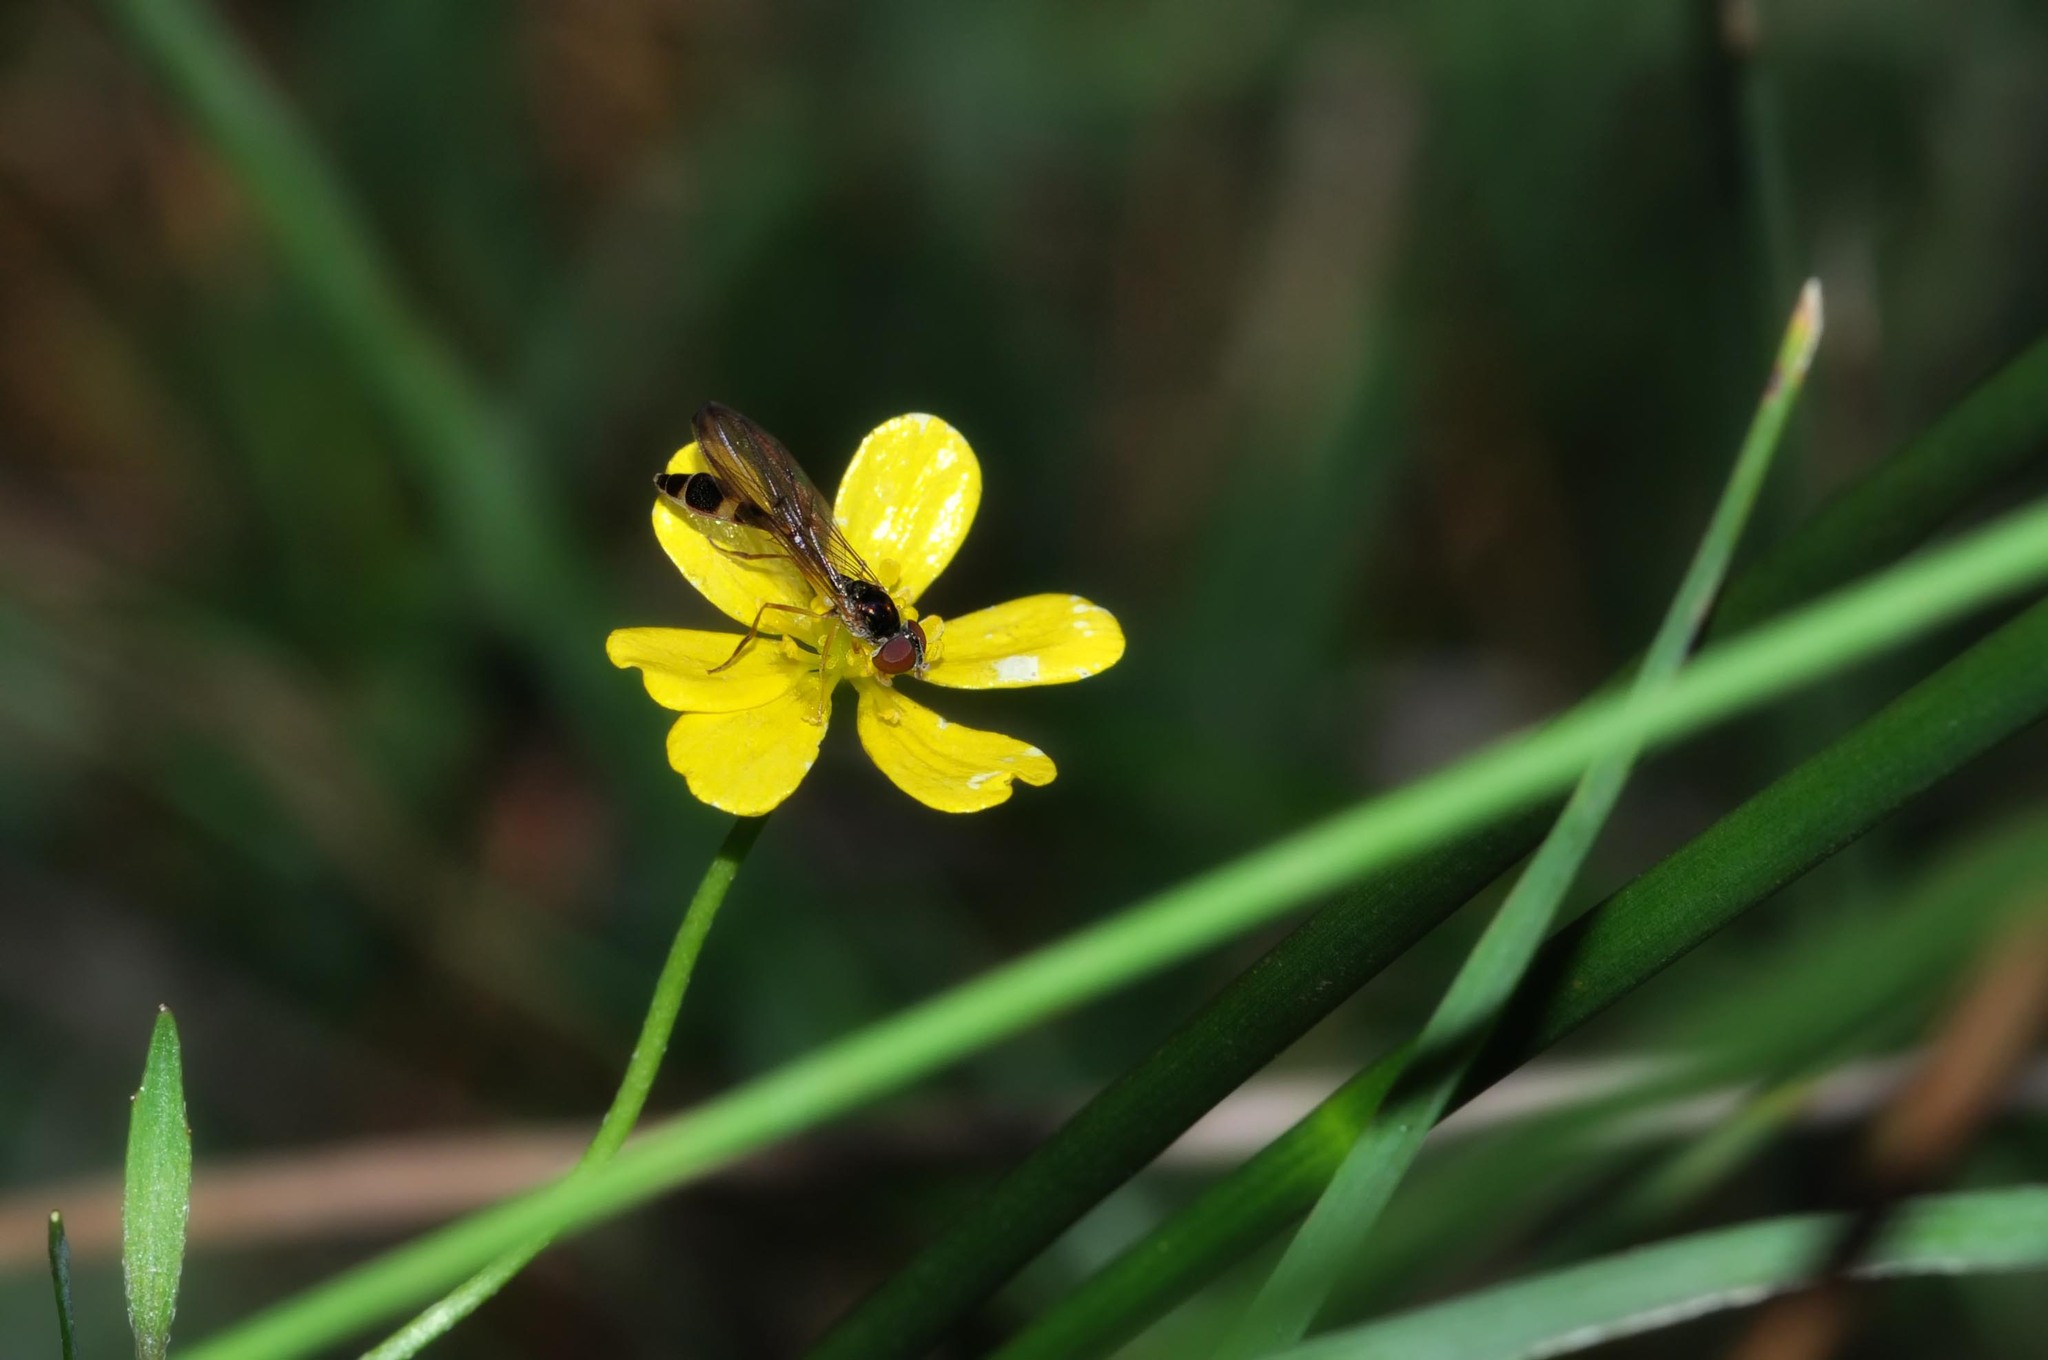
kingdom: Animalia
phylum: Arthropoda
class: Insecta
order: Diptera
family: Syrphidae
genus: Baccha
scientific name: Baccha elongata
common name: Common dainty
